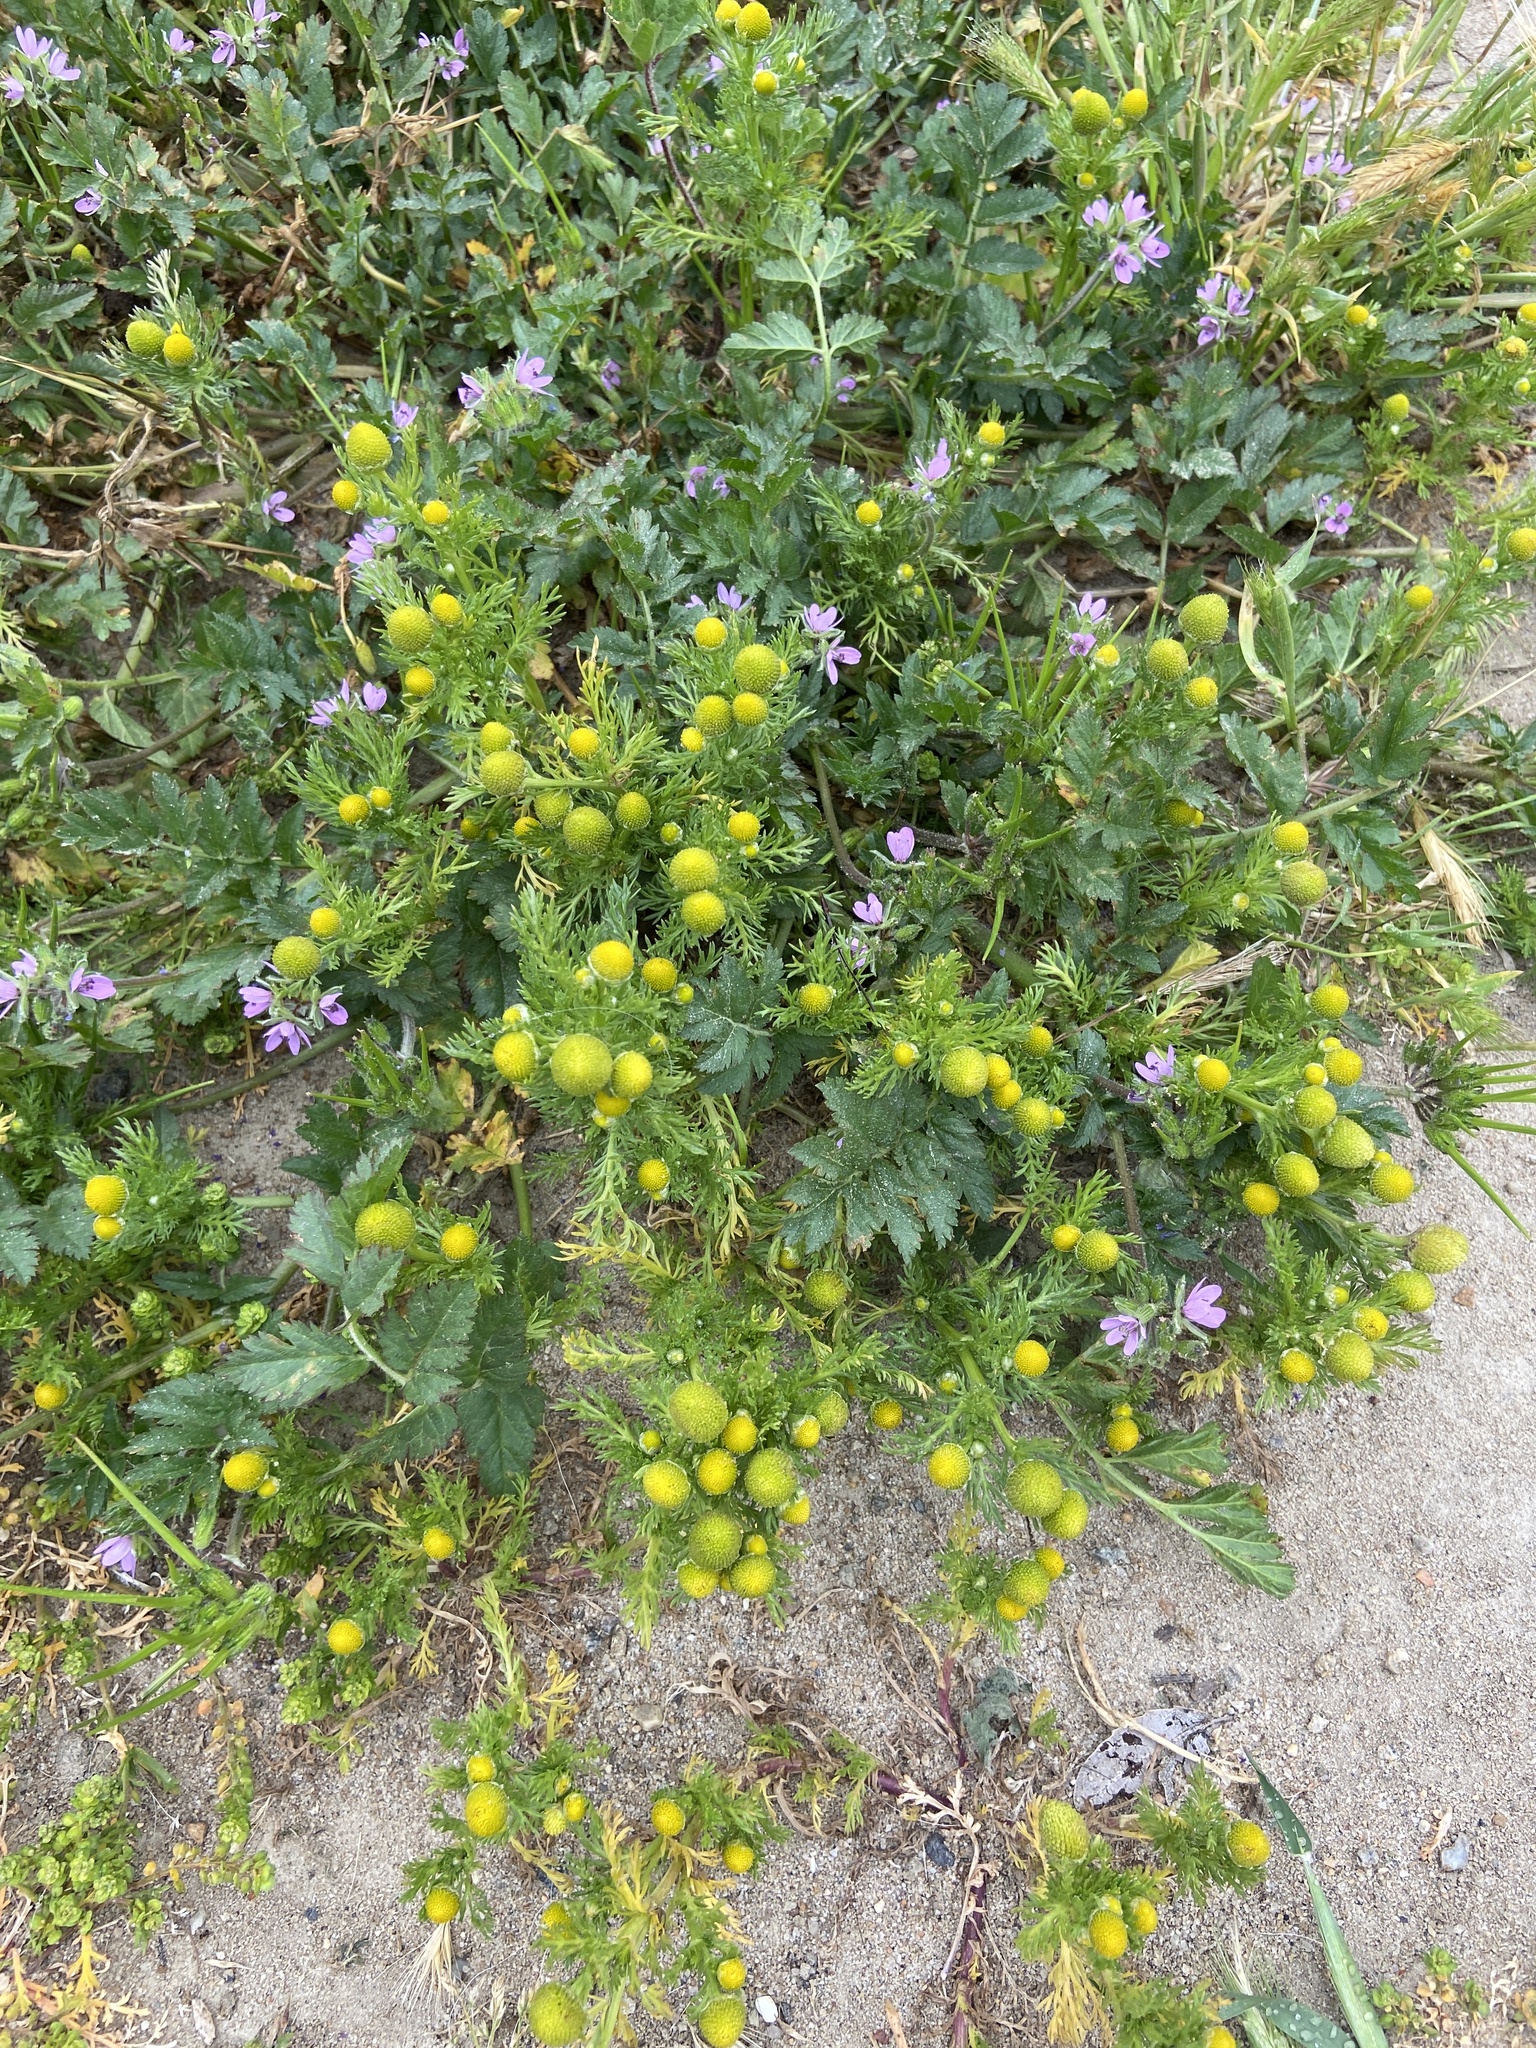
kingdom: Plantae
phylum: Tracheophyta
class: Magnoliopsida
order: Asterales
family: Asteraceae
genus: Matricaria
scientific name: Matricaria discoidea
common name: Disc mayweed
